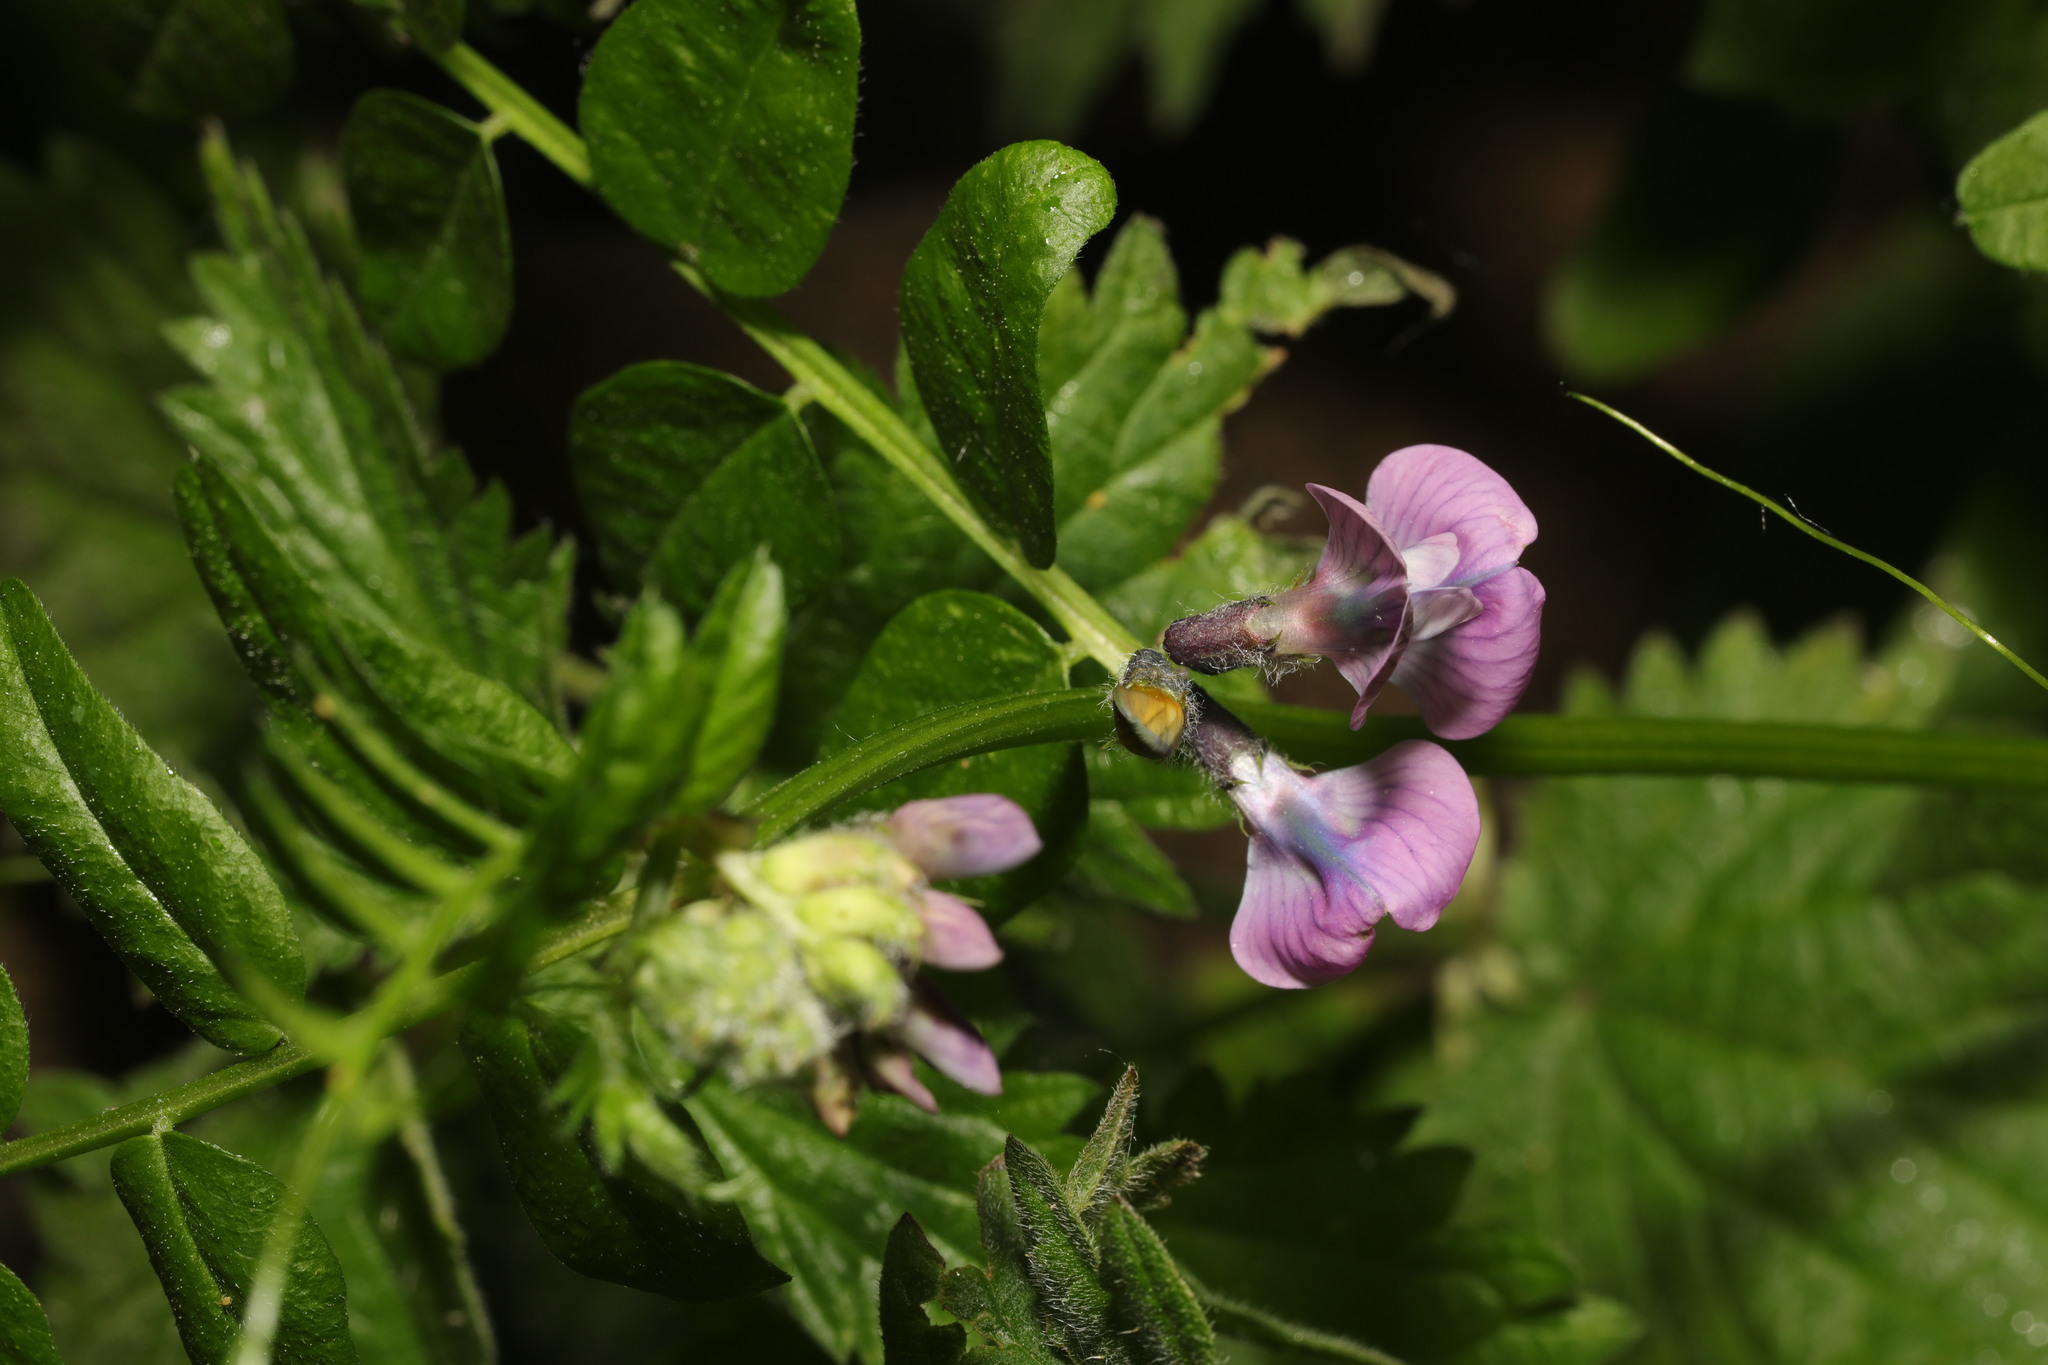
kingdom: Plantae
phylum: Tracheophyta
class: Magnoliopsida
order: Fabales
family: Fabaceae
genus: Vicia
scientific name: Vicia sepium
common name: Bush vetch
